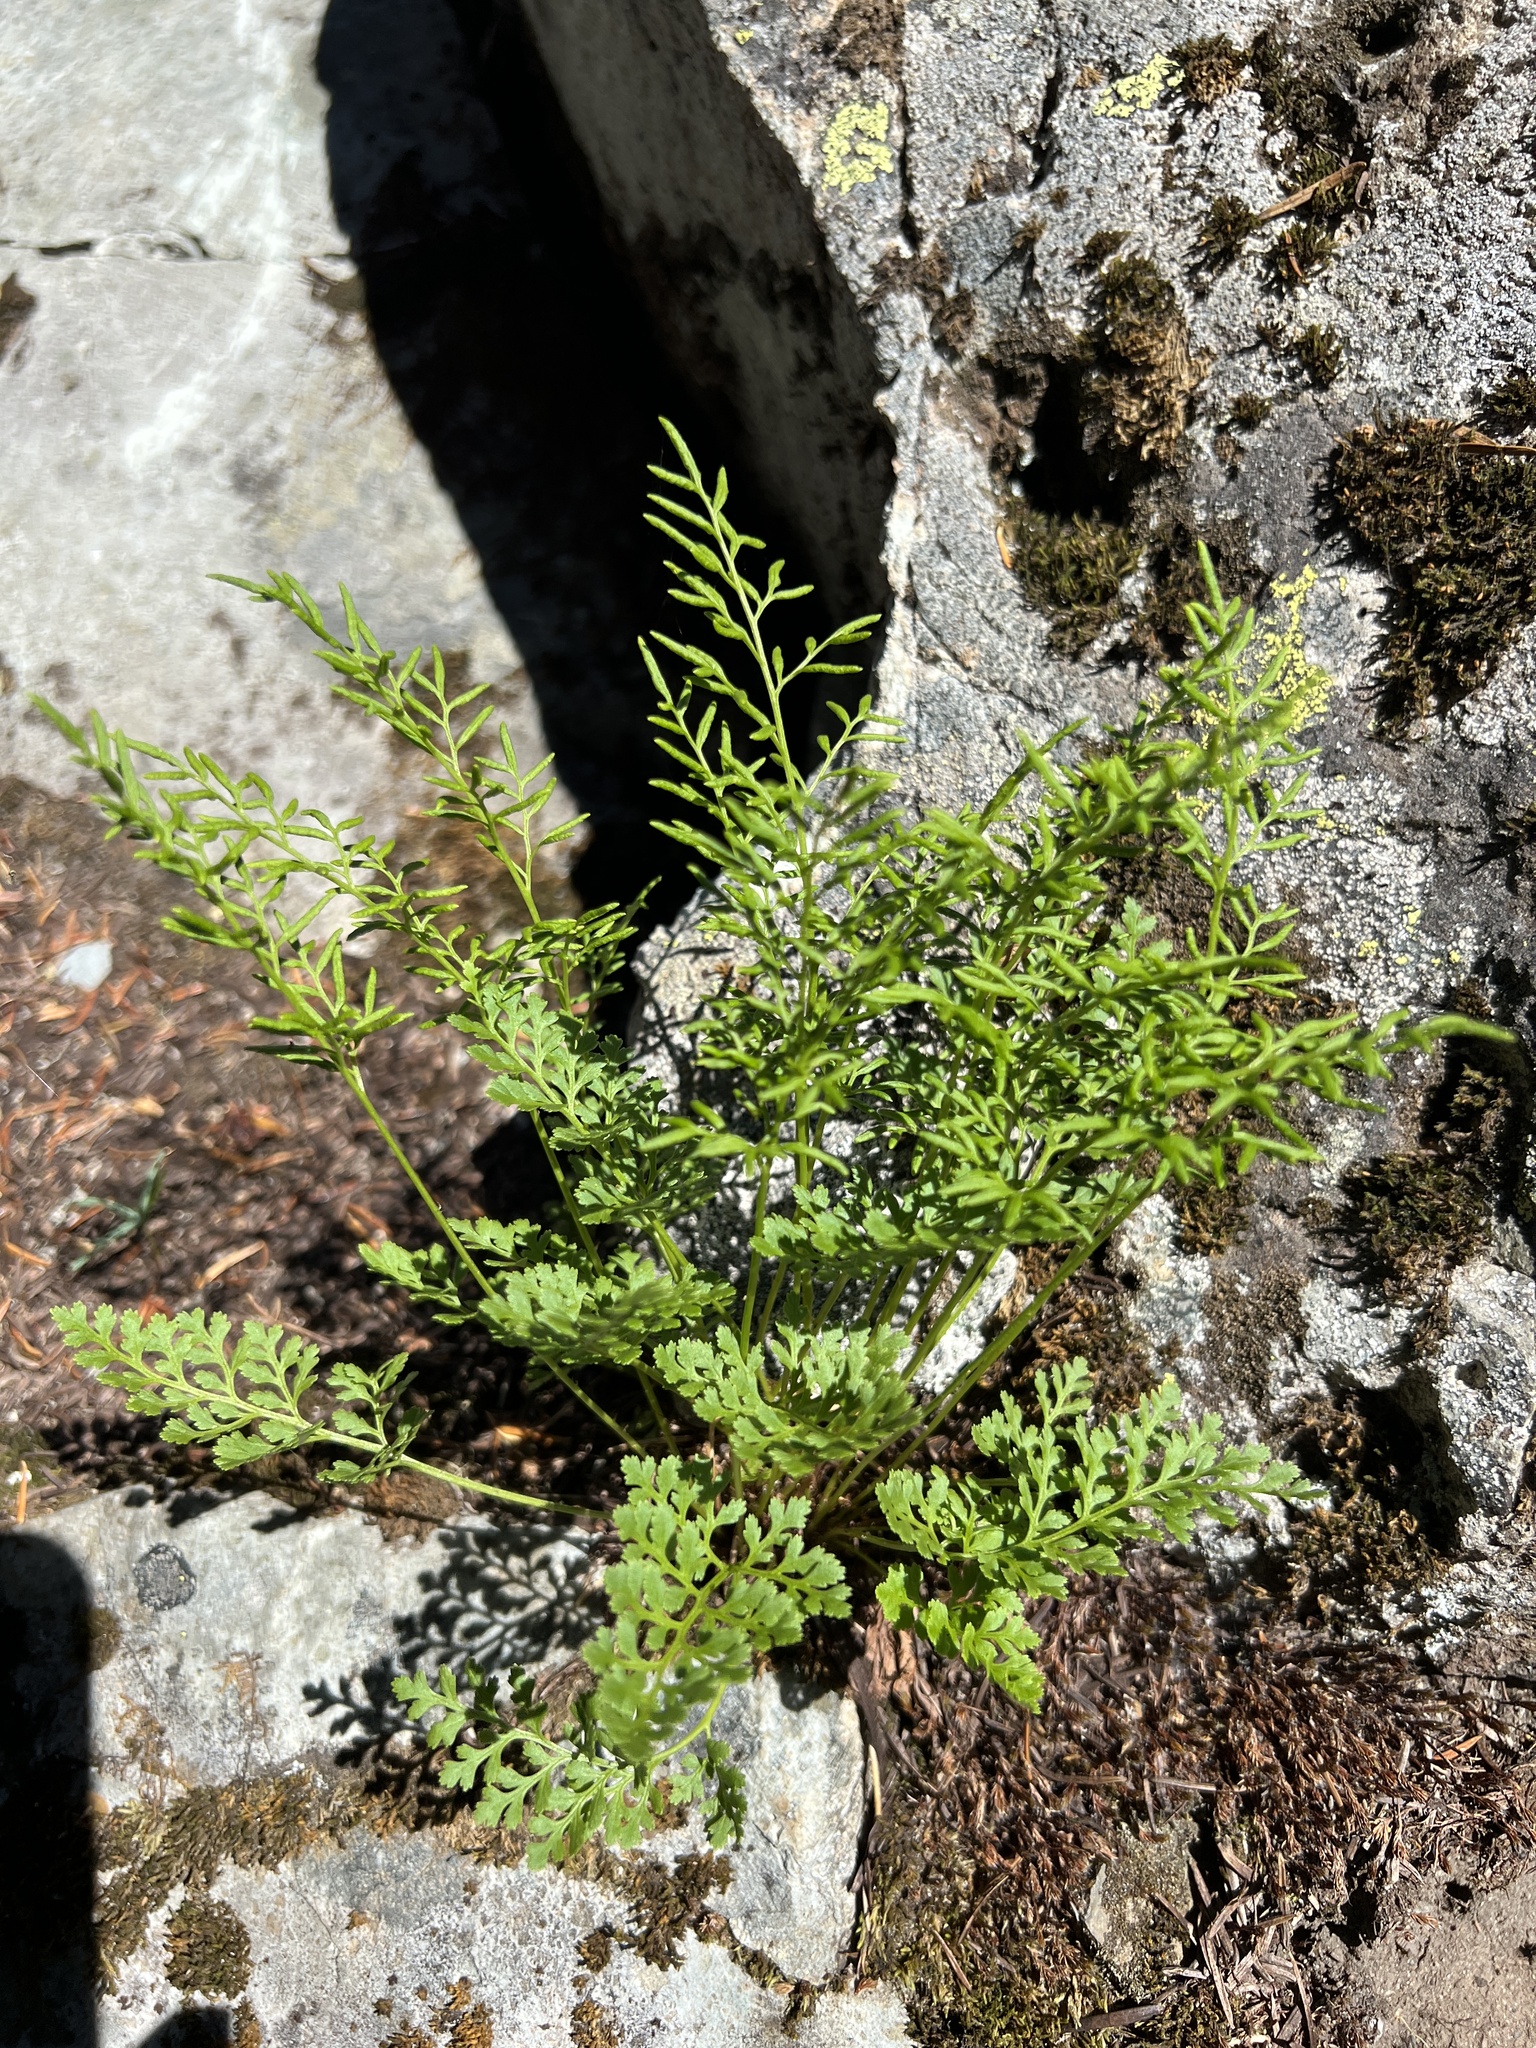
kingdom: Plantae
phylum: Tracheophyta
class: Polypodiopsida
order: Polypodiales
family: Pteridaceae
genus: Cryptogramma
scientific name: Cryptogramma acrostichoides
